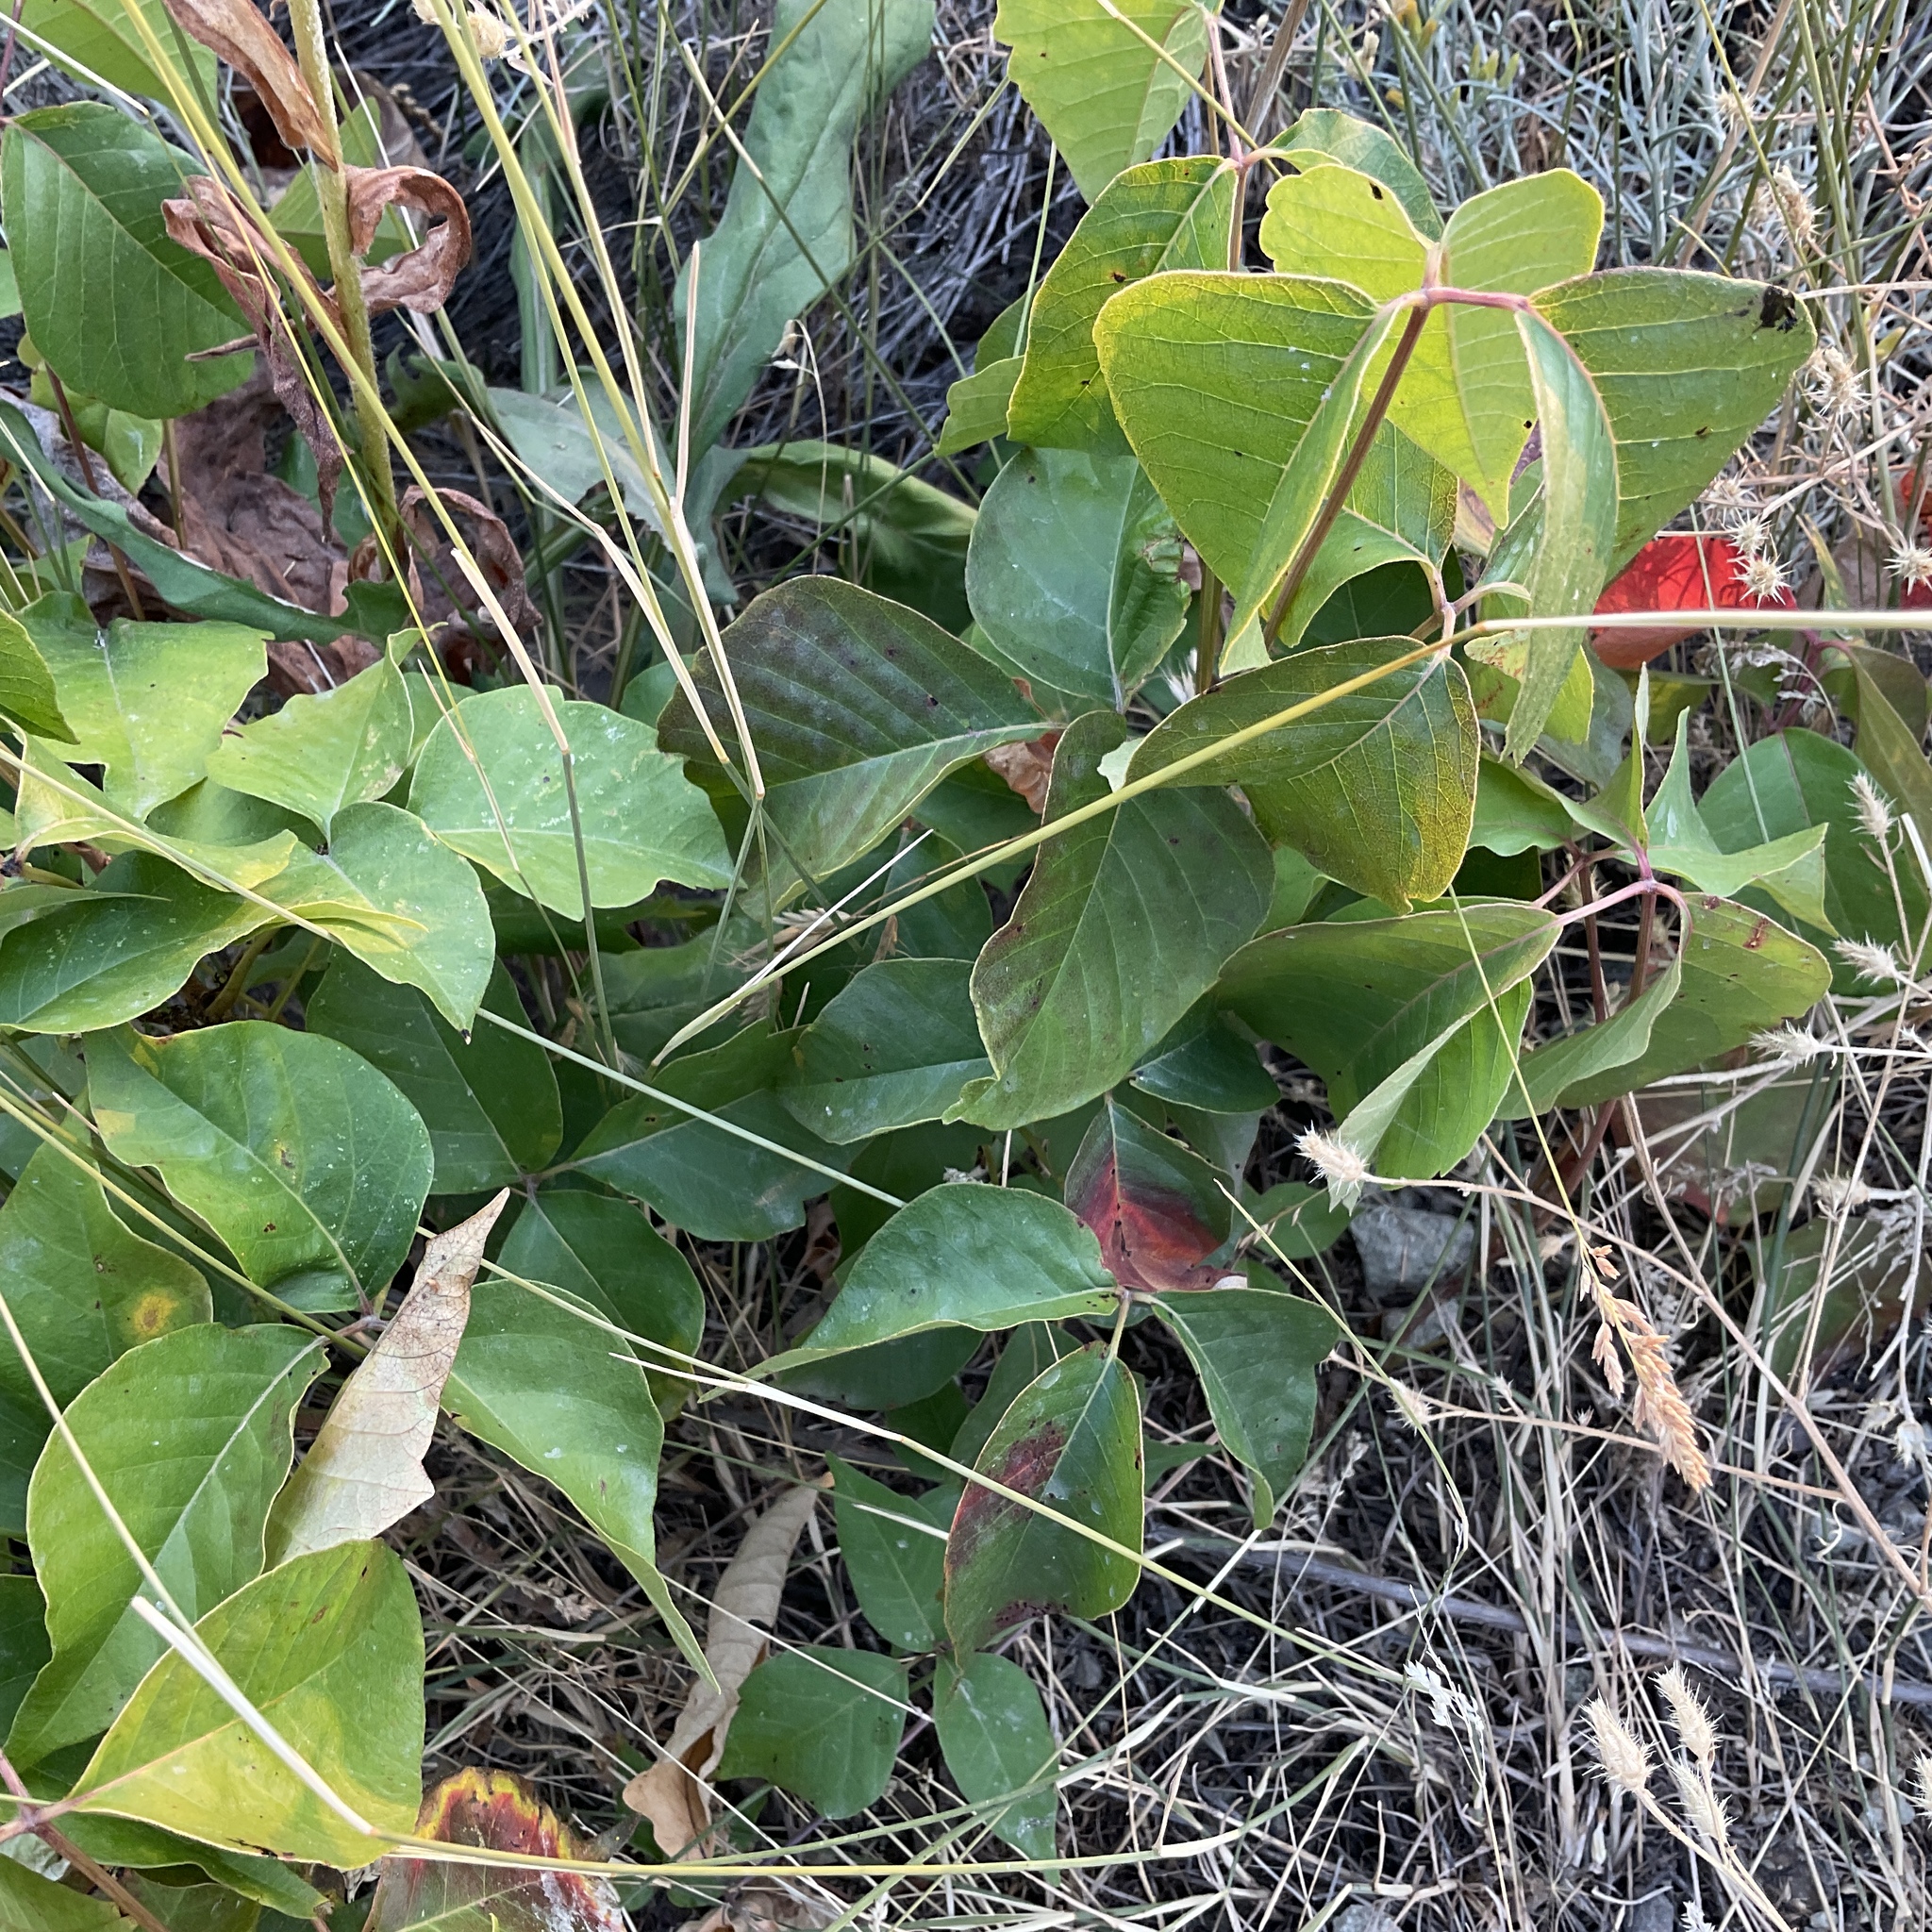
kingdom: Plantae
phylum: Tracheophyta
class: Magnoliopsida
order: Sapindales
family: Anacardiaceae
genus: Toxicodendron
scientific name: Toxicodendron rydbergii
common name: Rydberg's poison-ivy
